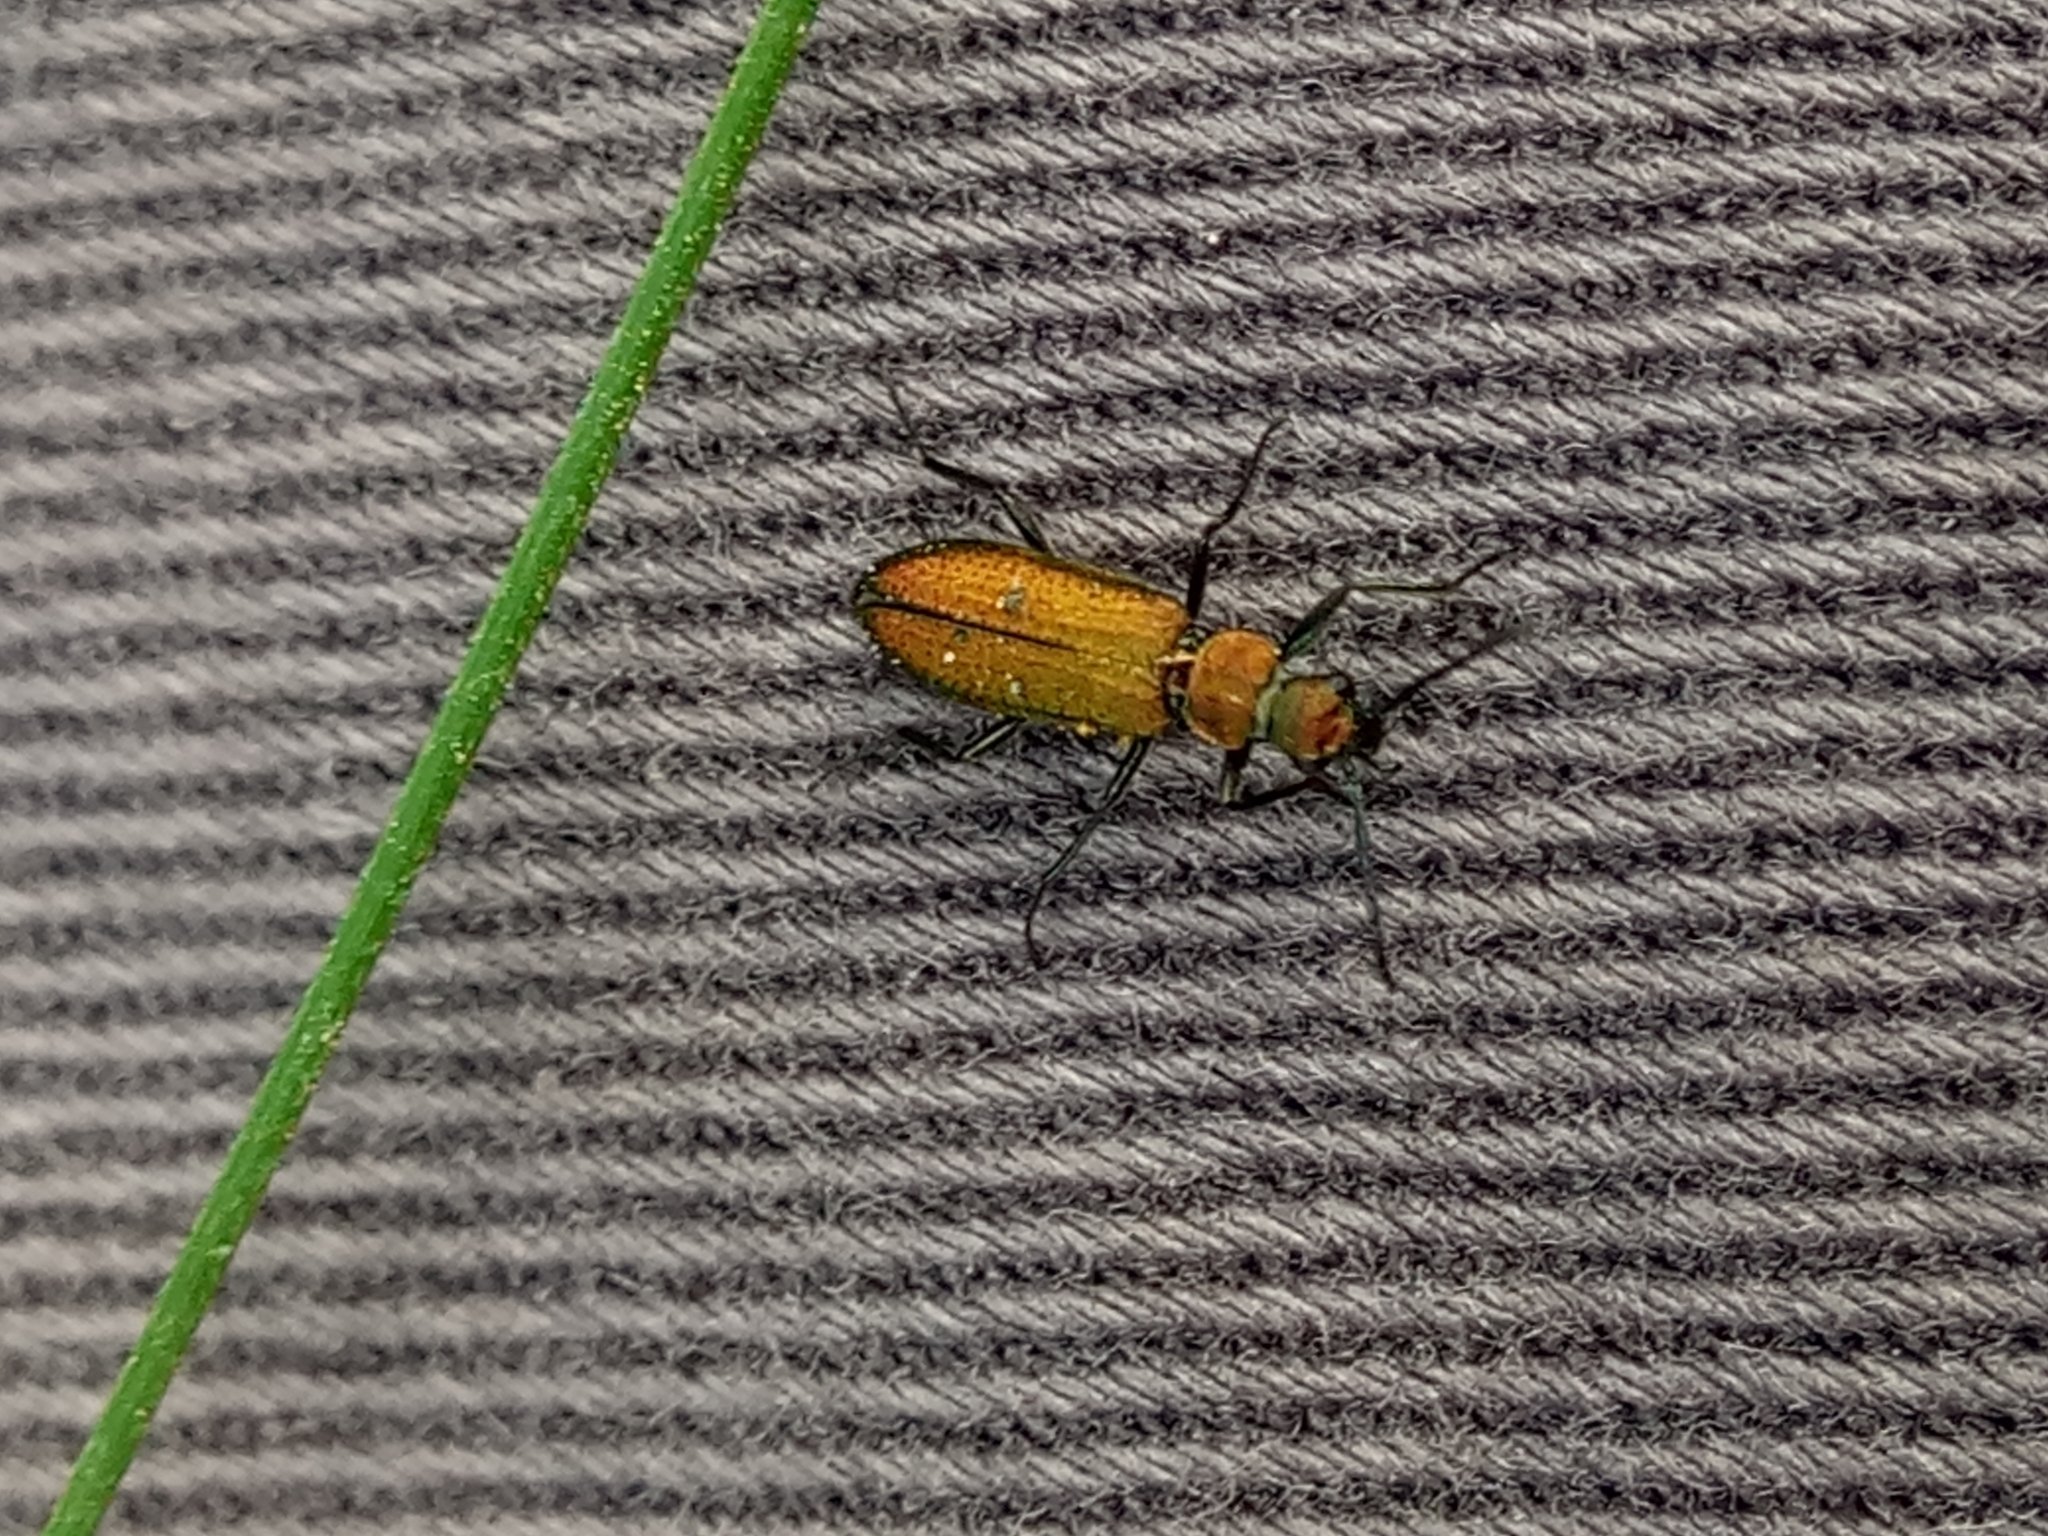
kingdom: Animalia
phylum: Arthropoda
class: Insecta
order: Coleoptera
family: Stenotrachelidae
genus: Stenotrachelus
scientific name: Stenotrachelus aeneus
